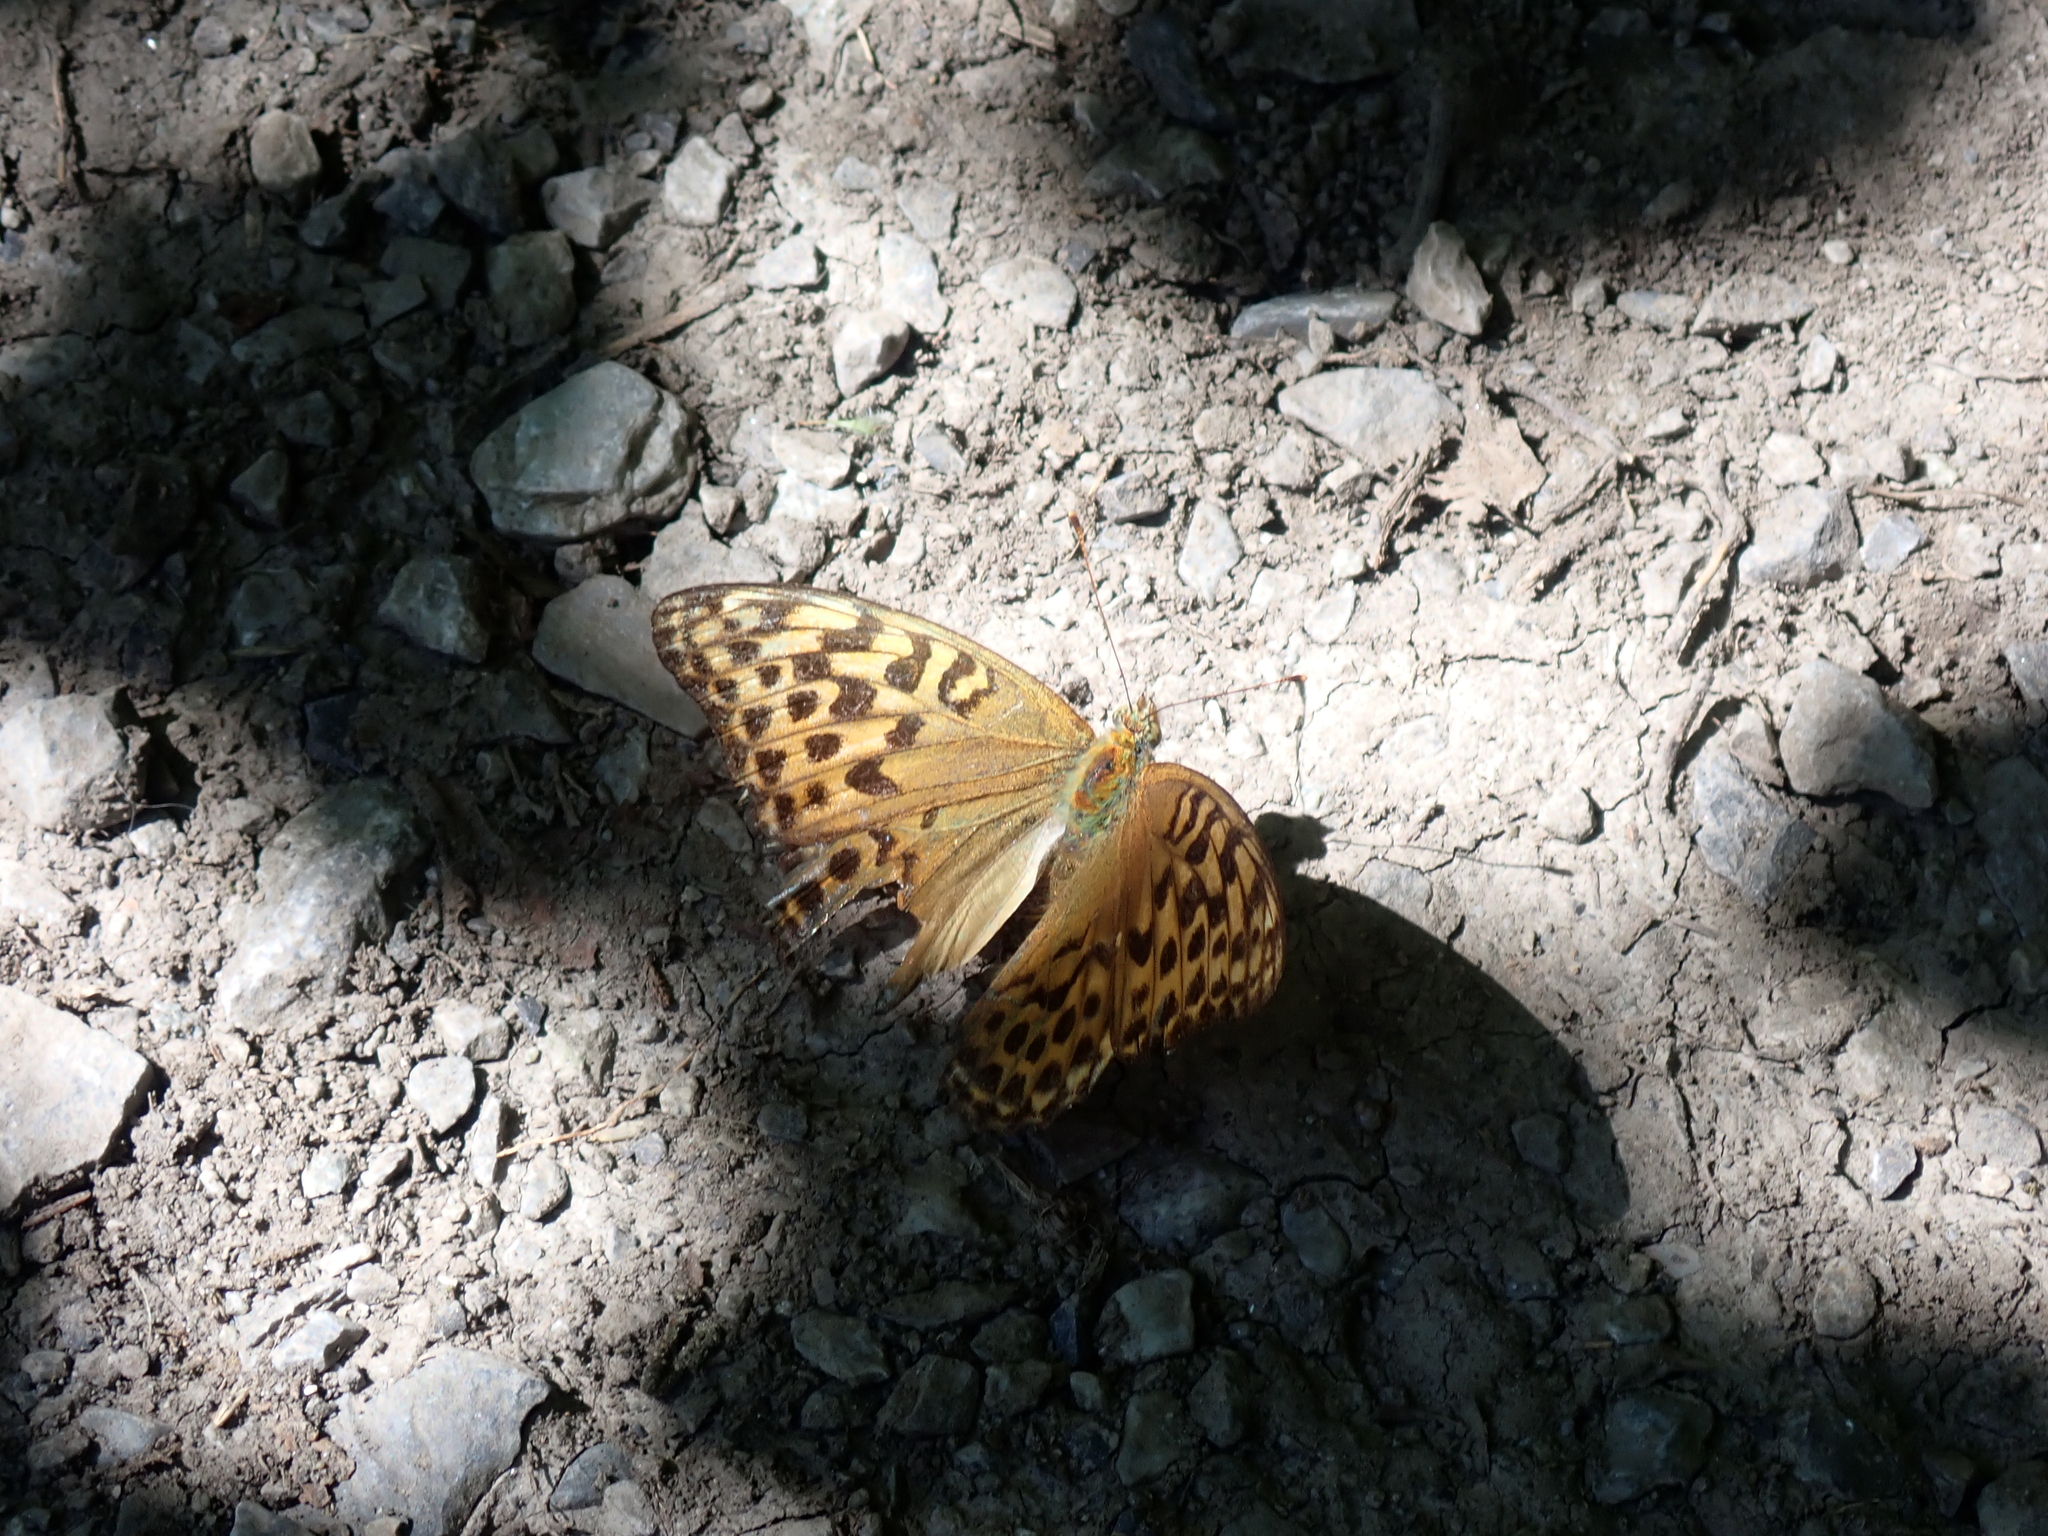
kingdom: Animalia
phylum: Arthropoda
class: Insecta
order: Lepidoptera
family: Nymphalidae
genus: Argynnis
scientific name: Argynnis paphia
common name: Silver-washed fritillary
